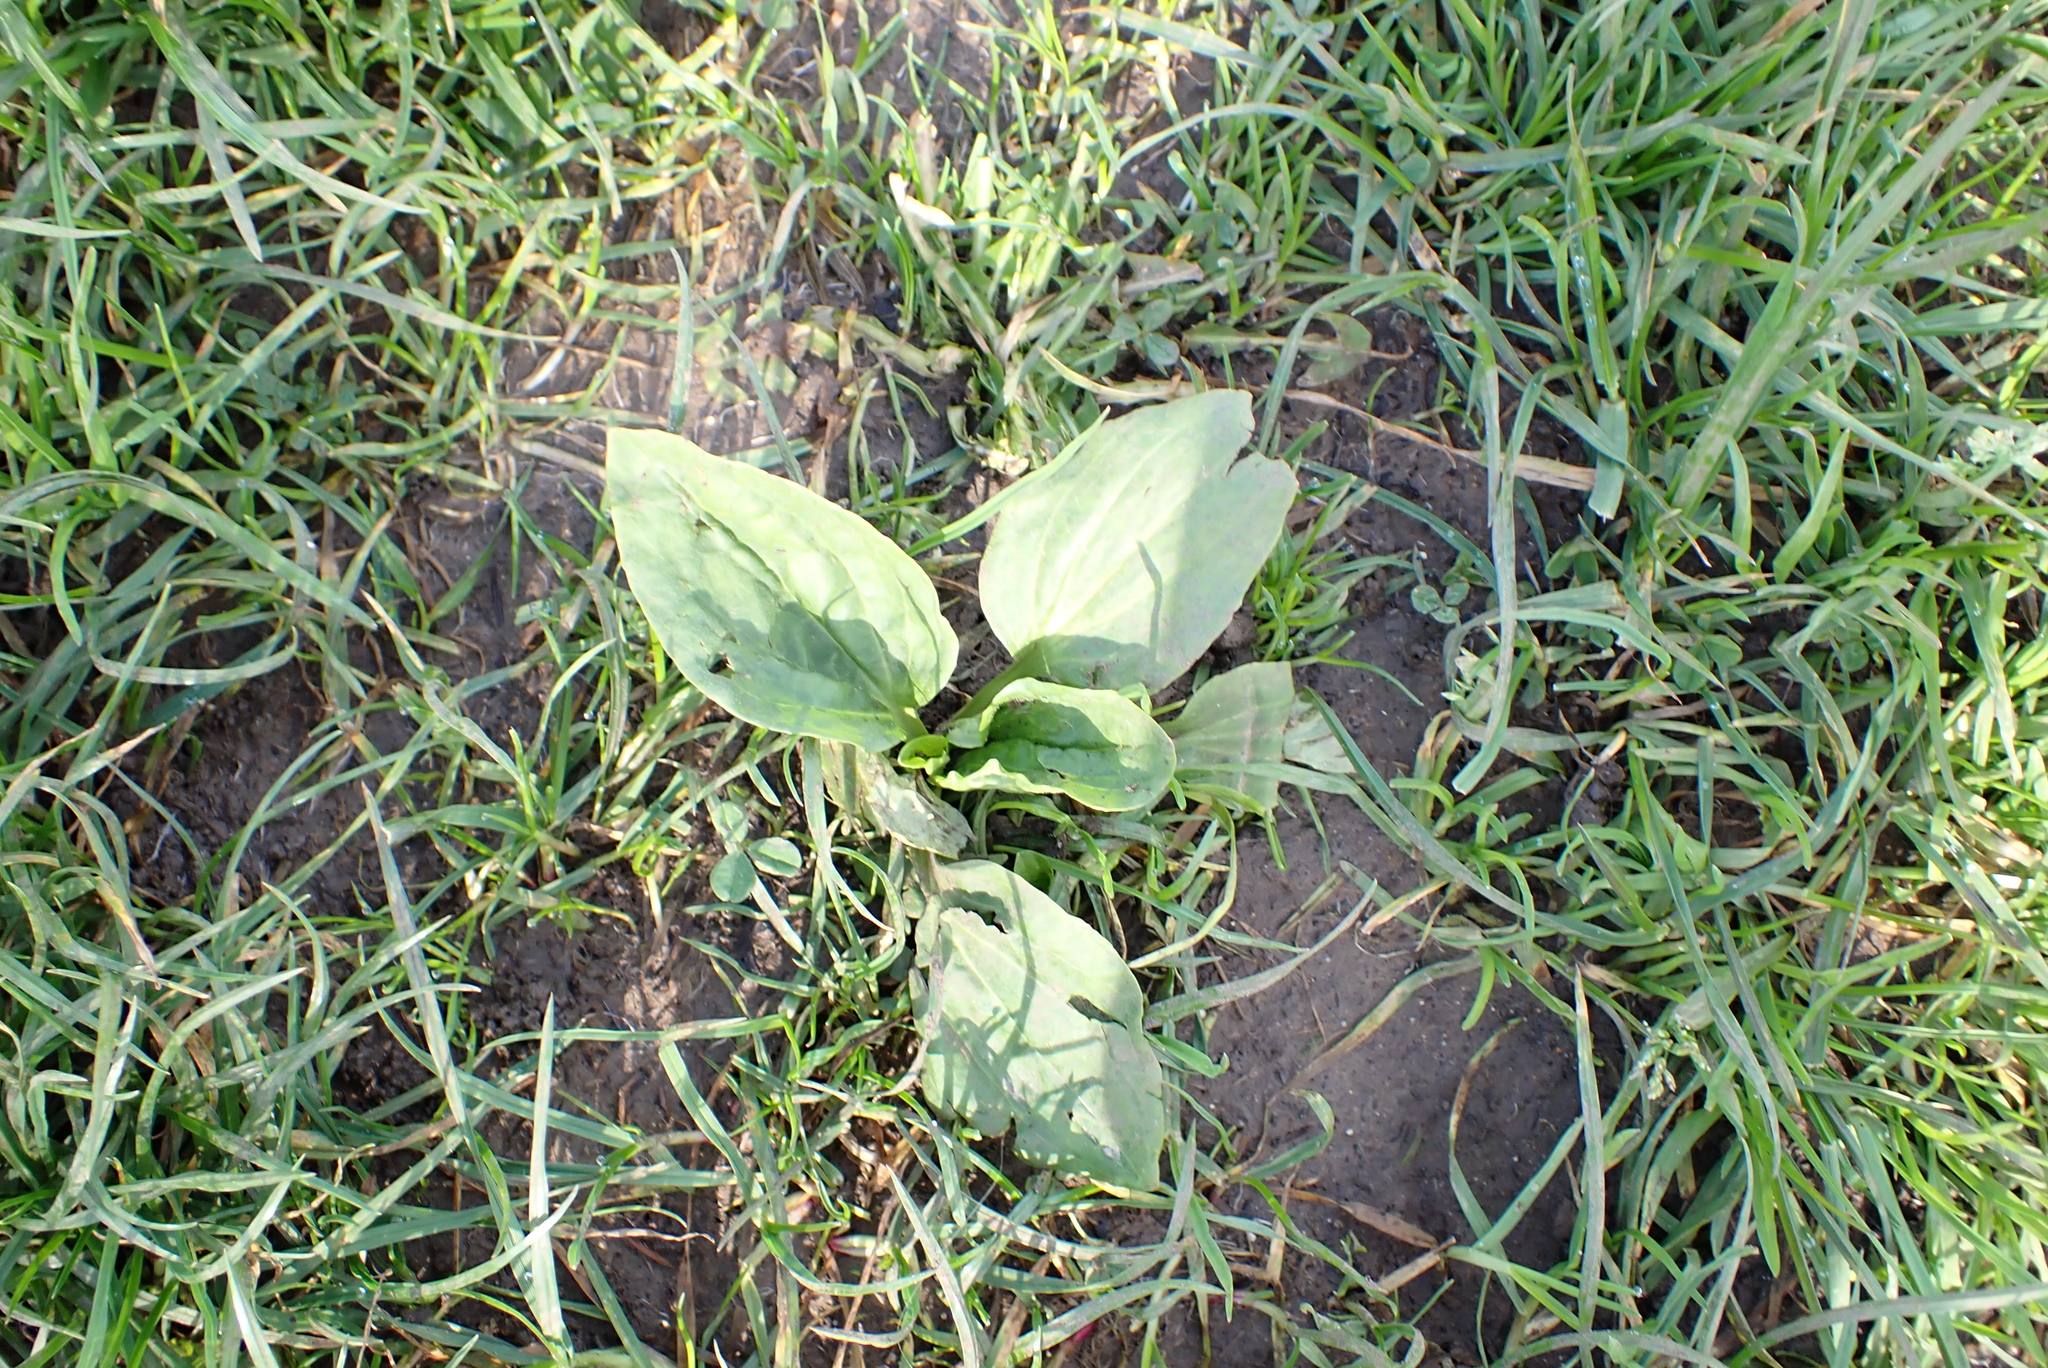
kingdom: Plantae
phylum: Tracheophyta
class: Magnoliopsida
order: Lamiales
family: Plantaginaceae
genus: Plantago
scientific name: Plantago major
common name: Common plantain
